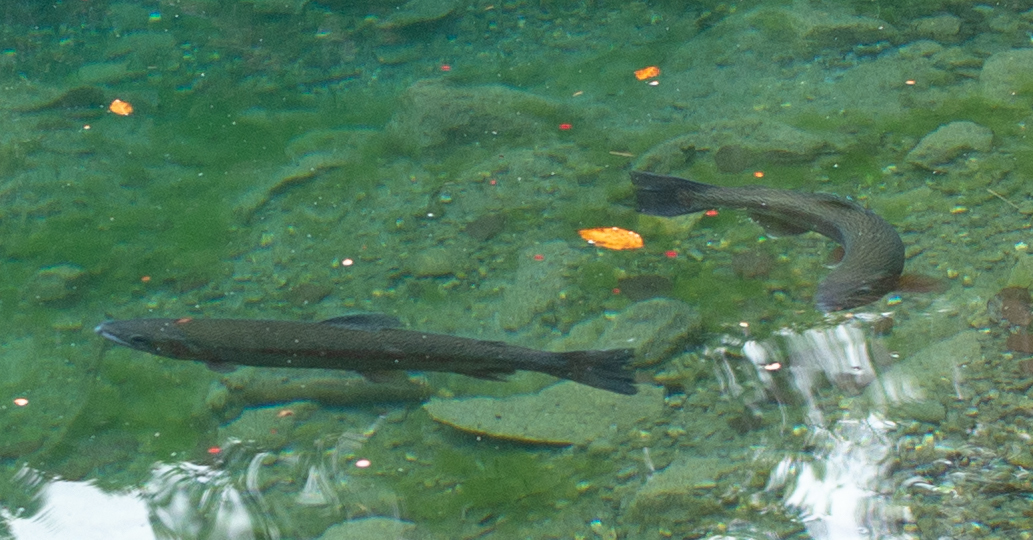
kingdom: Animalia
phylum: Chordata
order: Salmoniformes
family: Salmonidae
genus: Oncorhynchus
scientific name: Oncorhynchus mykiss
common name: Rainbow trout
